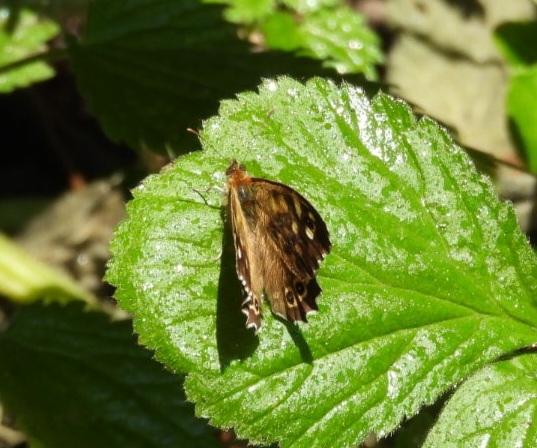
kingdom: Animalia
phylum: Arthropoda
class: Insecta
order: Lepidoptera
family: Nymphalidae
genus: Pararge
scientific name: Pararge aegeria
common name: Speckled wood
